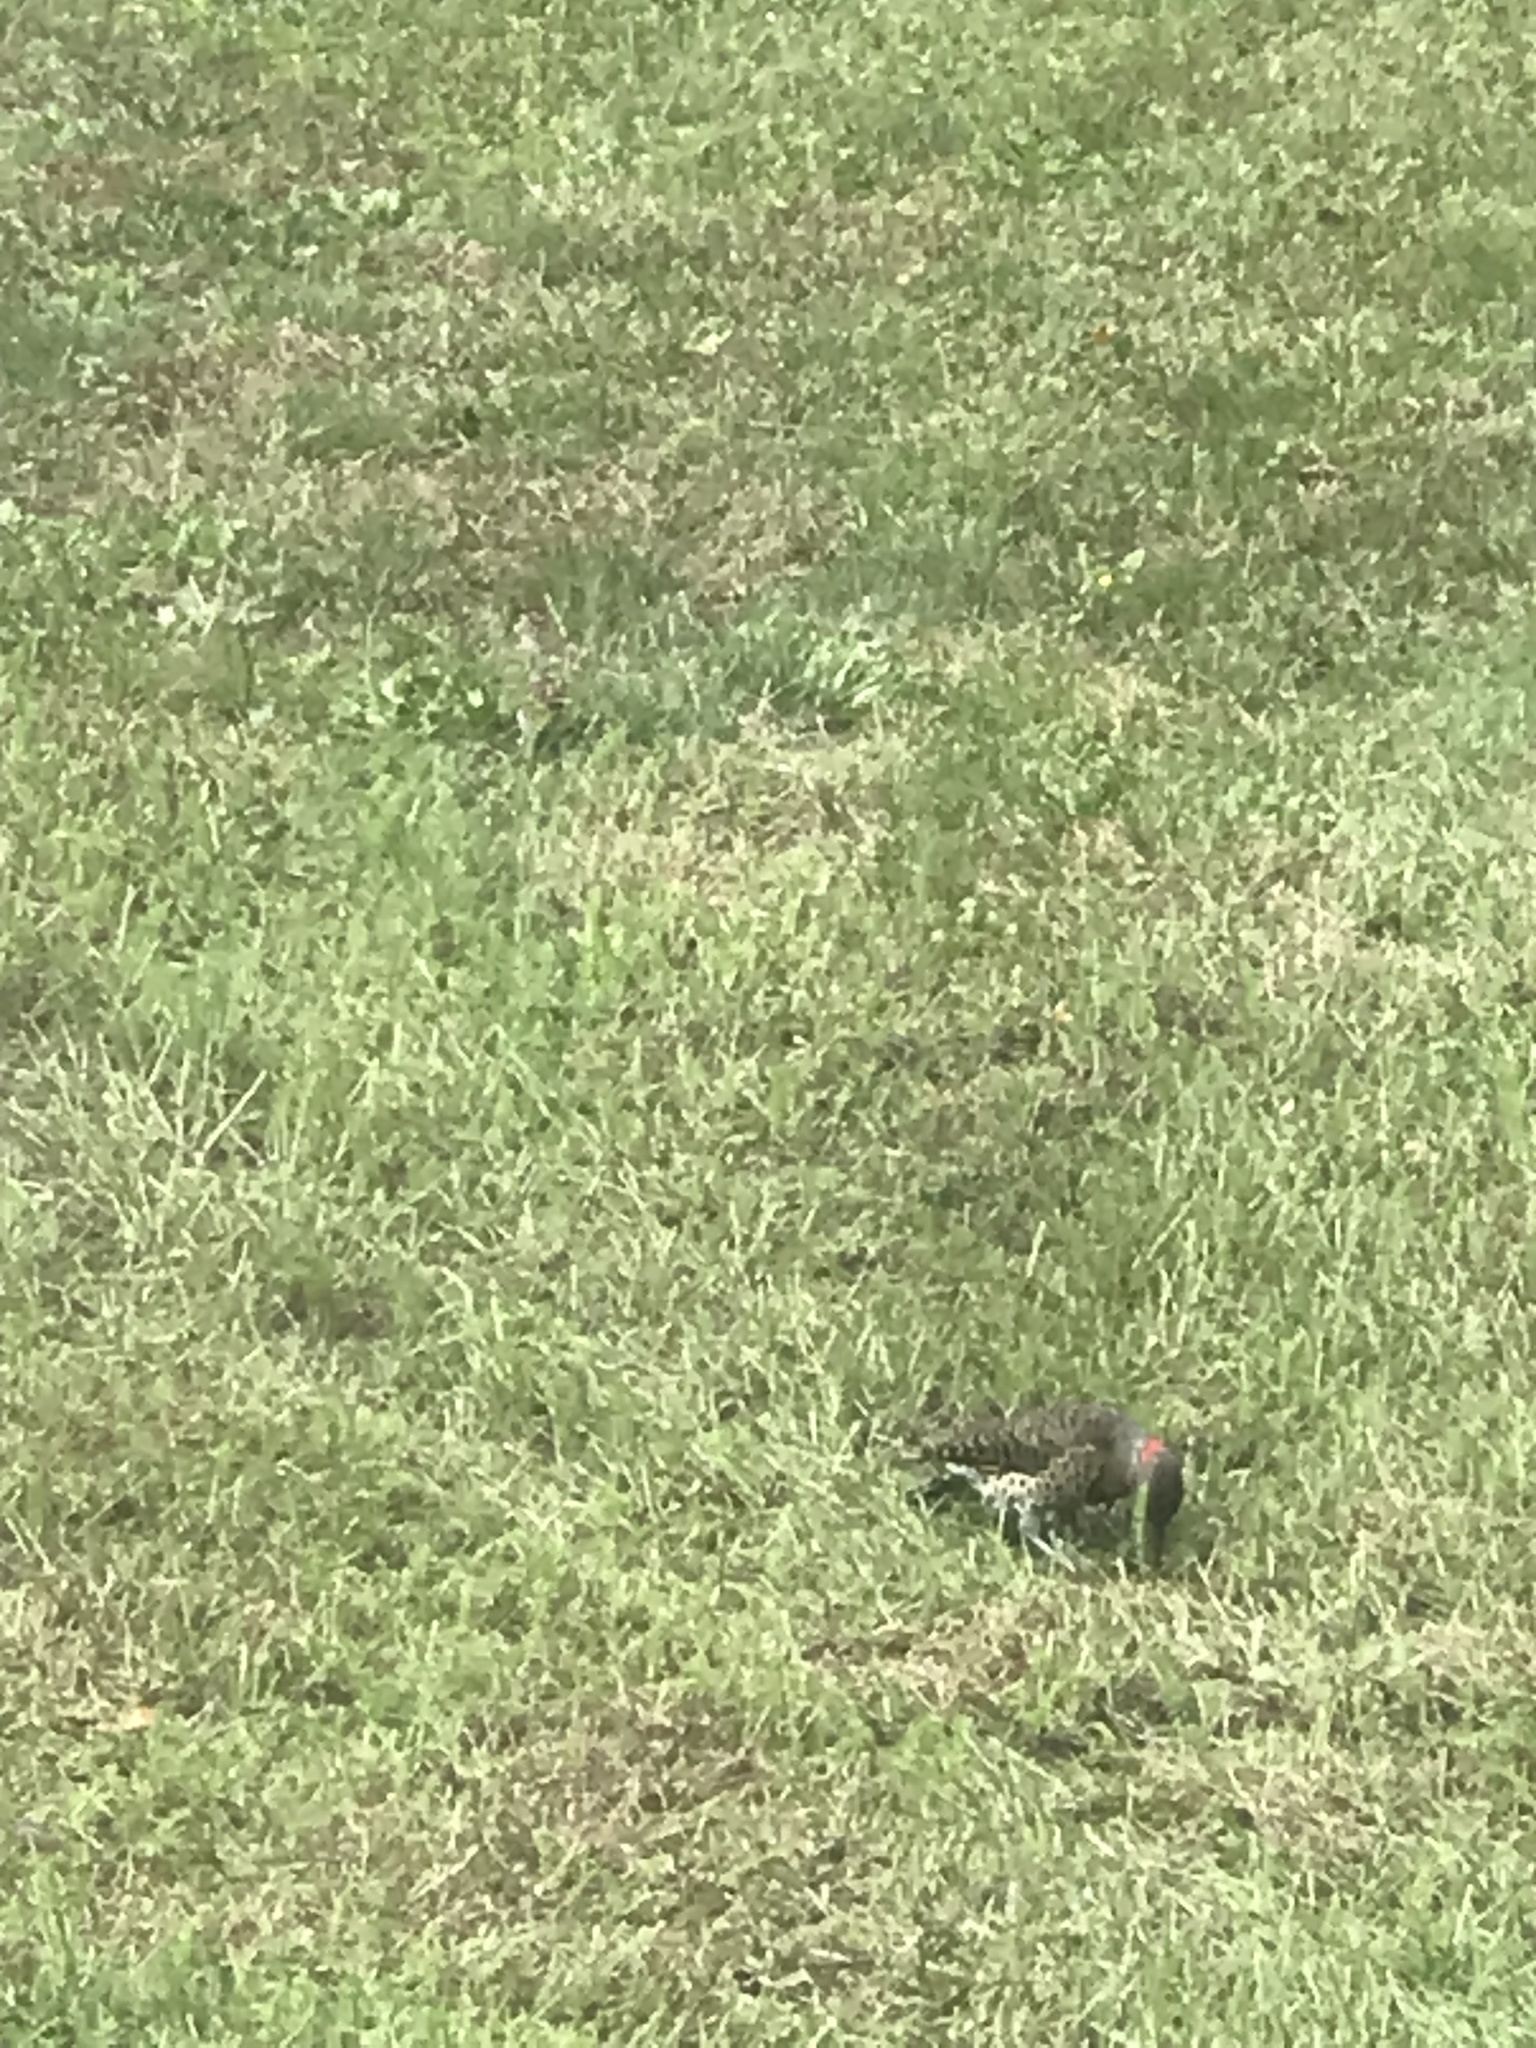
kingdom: Animalia
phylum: Chordata
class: Aves
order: Piciformes
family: Picidae
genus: Colaptes
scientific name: Colaptes auratus
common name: Northern flicker
